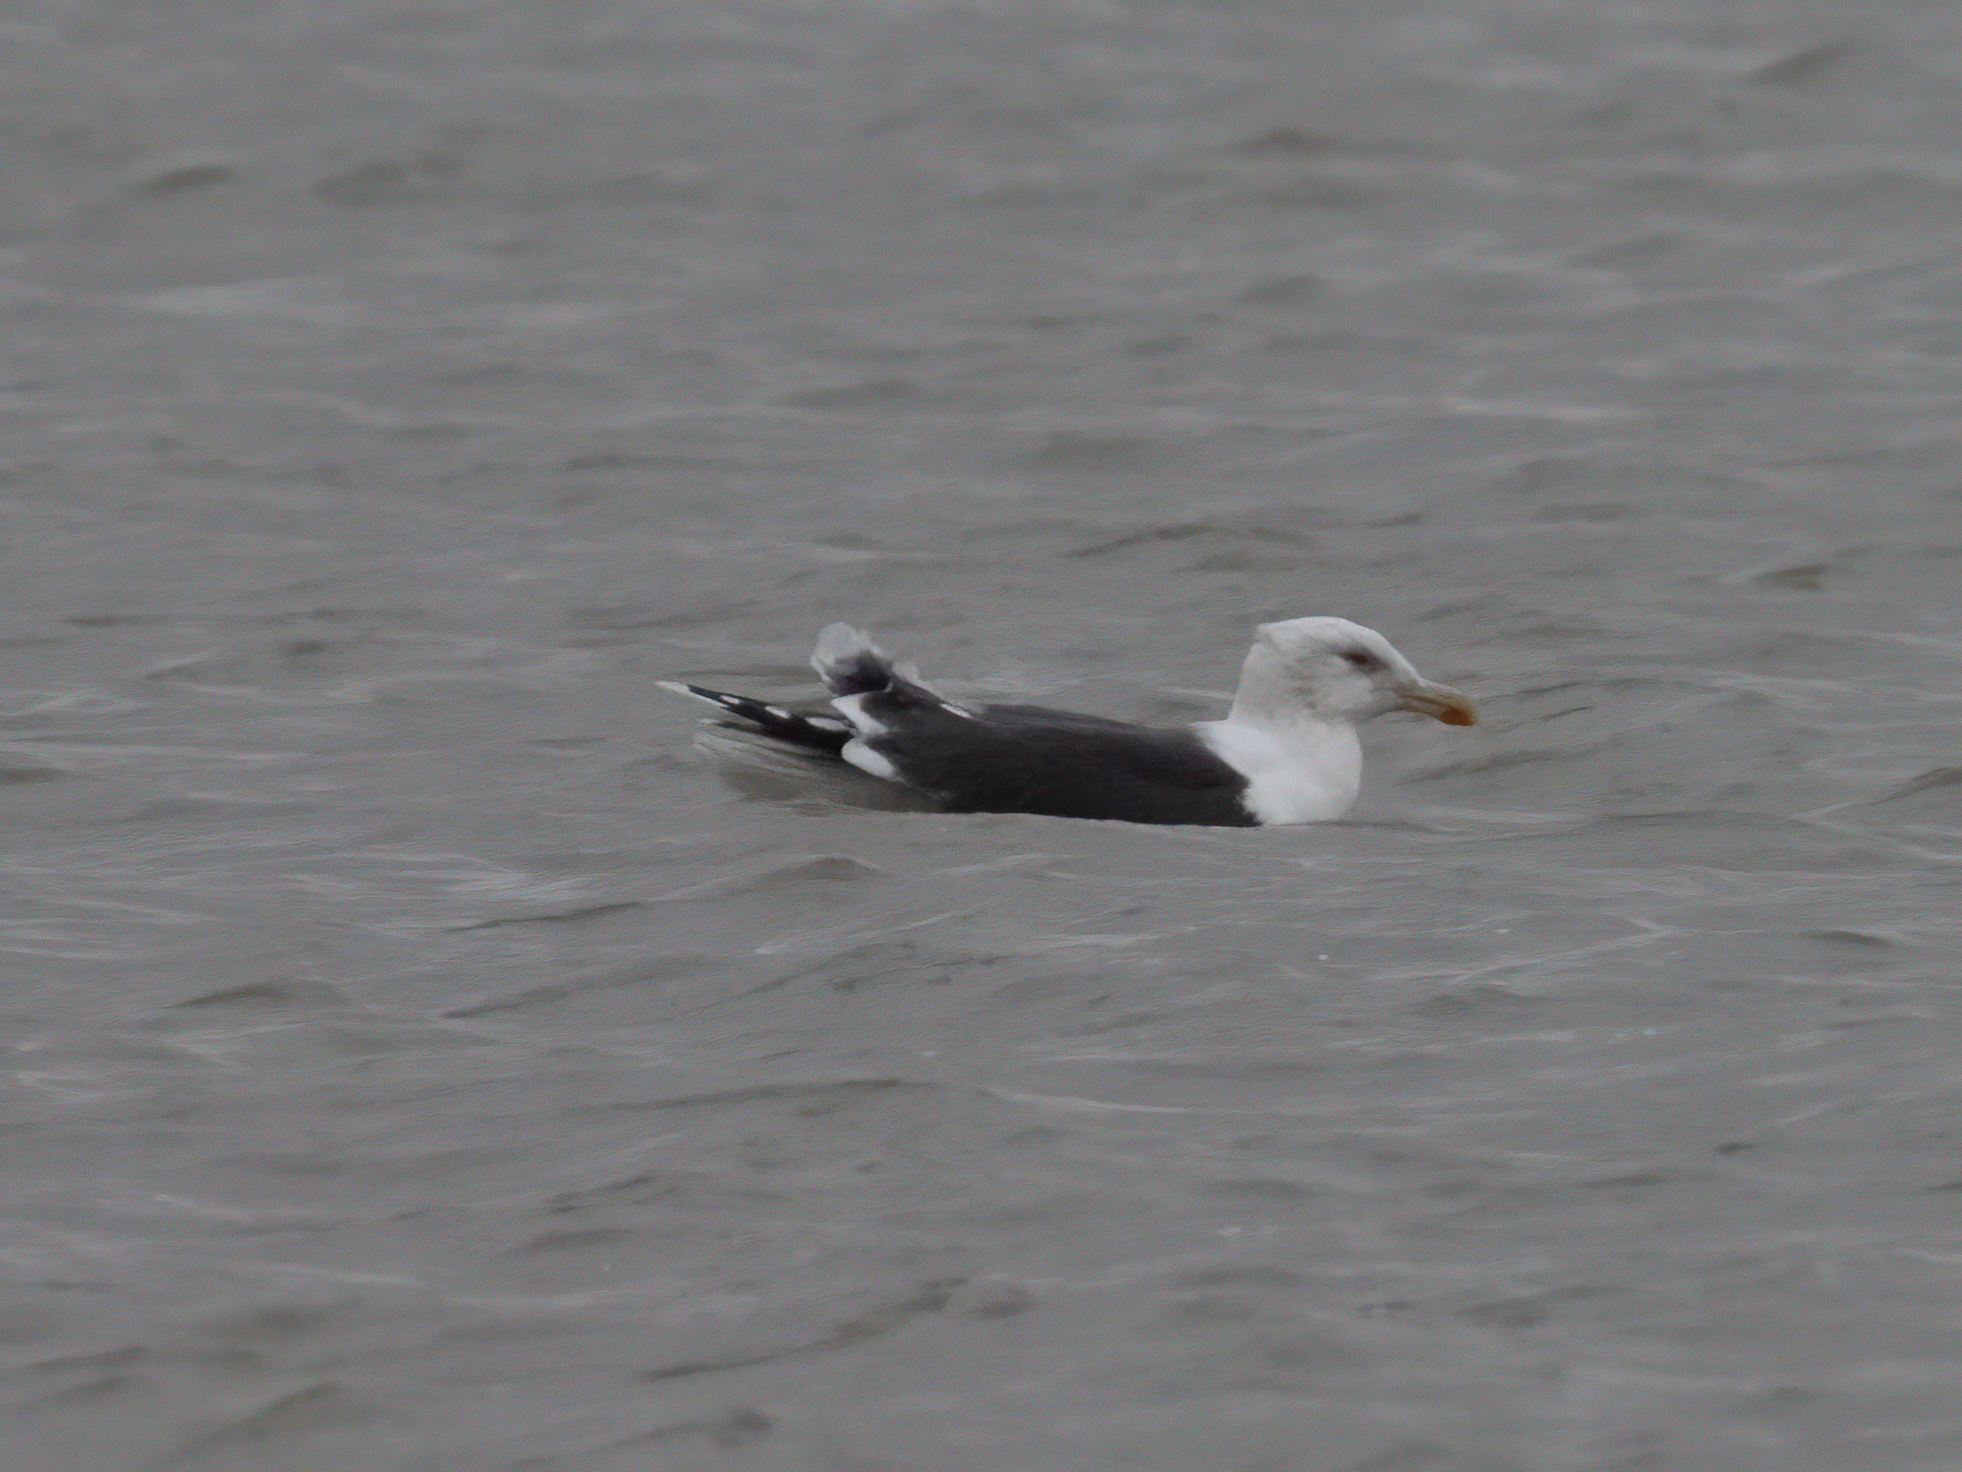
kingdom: Animalia
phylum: Chordata
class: Aves
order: Charadriiformes
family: Laridae
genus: Larus
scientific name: Larus marinus
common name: Great black-backed gull
